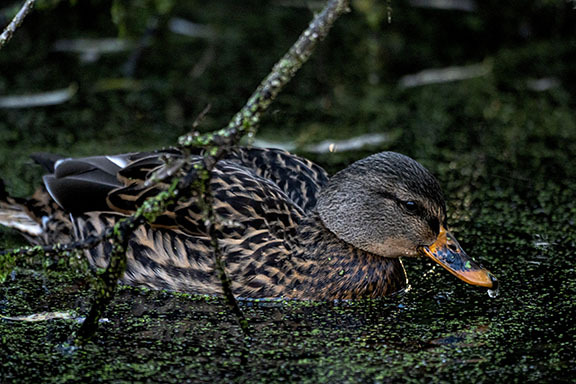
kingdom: Animalia
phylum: Chordata
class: Aves
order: Anseriformes
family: Anatidae
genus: Anas
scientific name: Anas platyrhynchos
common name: Mallard
